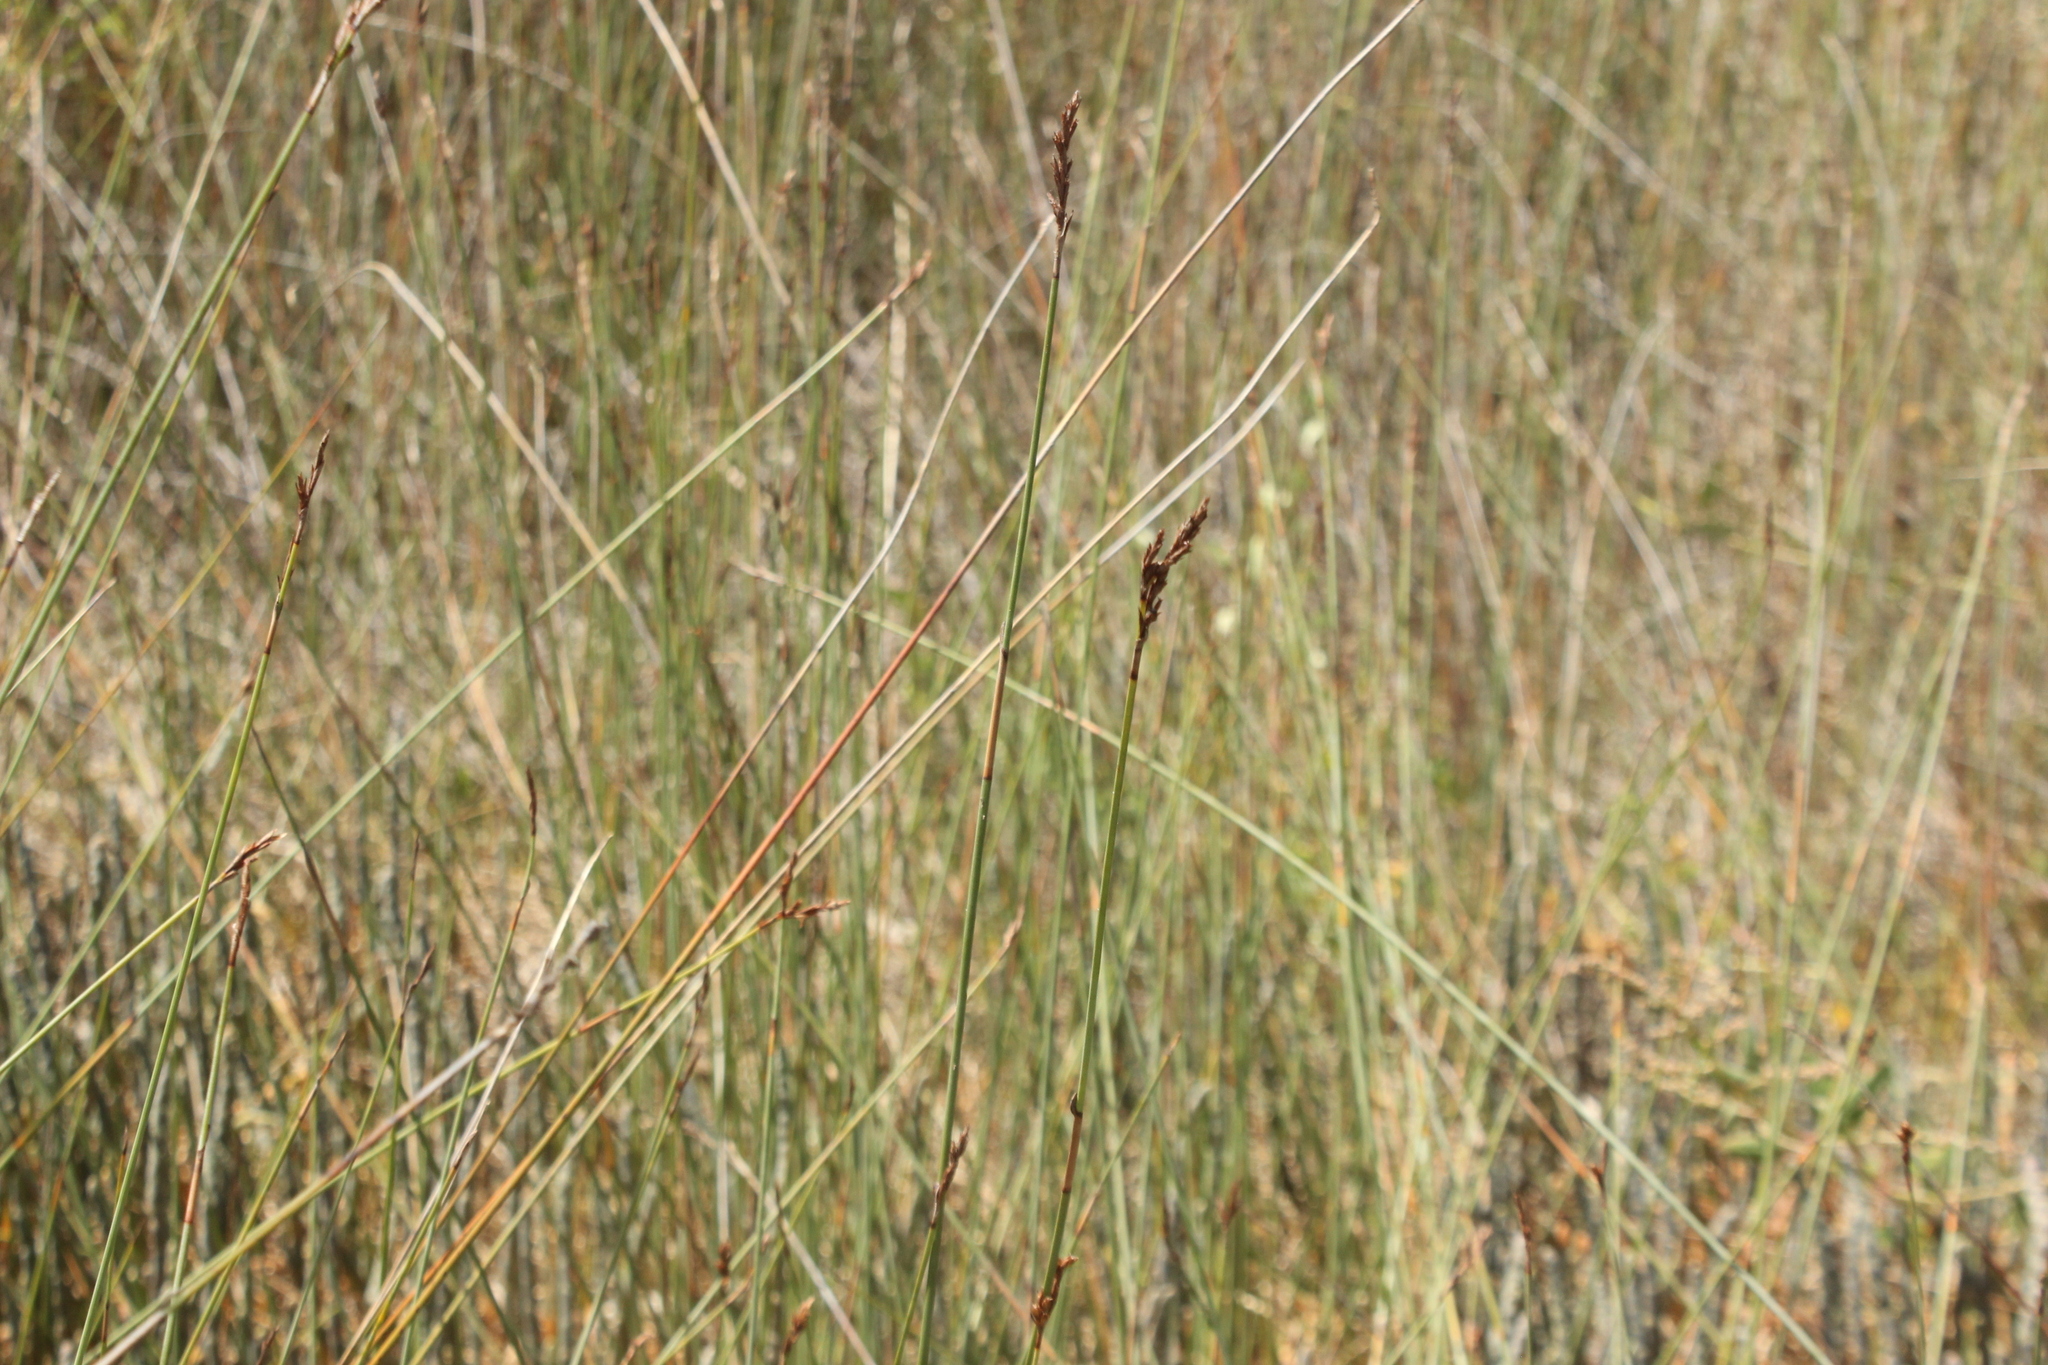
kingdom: Plantae
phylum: Tracheophyta
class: Liliopsida
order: Poales
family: Cyperaceae
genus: Machaerina
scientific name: Machaerina juncea
